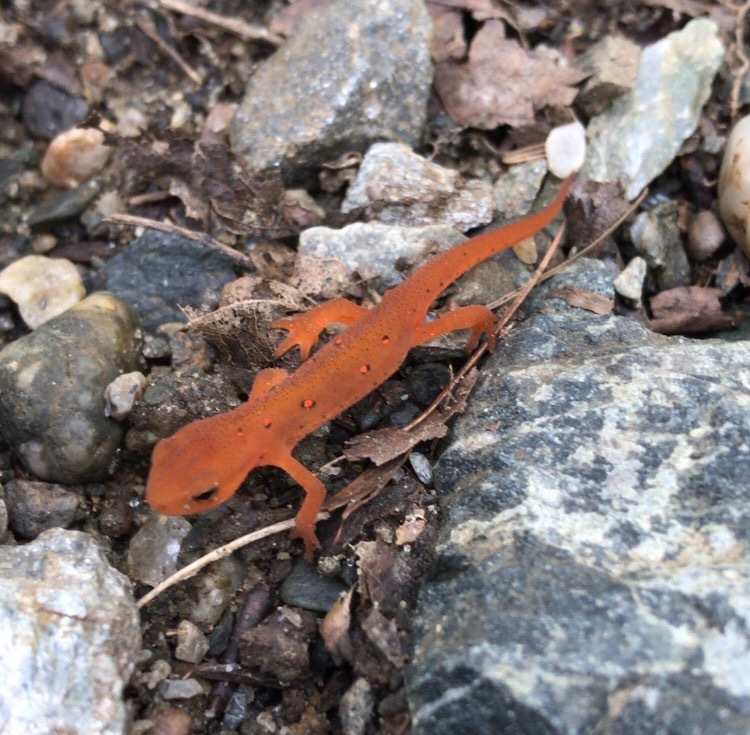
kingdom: Animalia
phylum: Chordata
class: Amphibia
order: Caudata
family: Salamandridae
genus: Notophthalmus
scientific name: Notophthalmus viridescens
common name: Eastern newt
